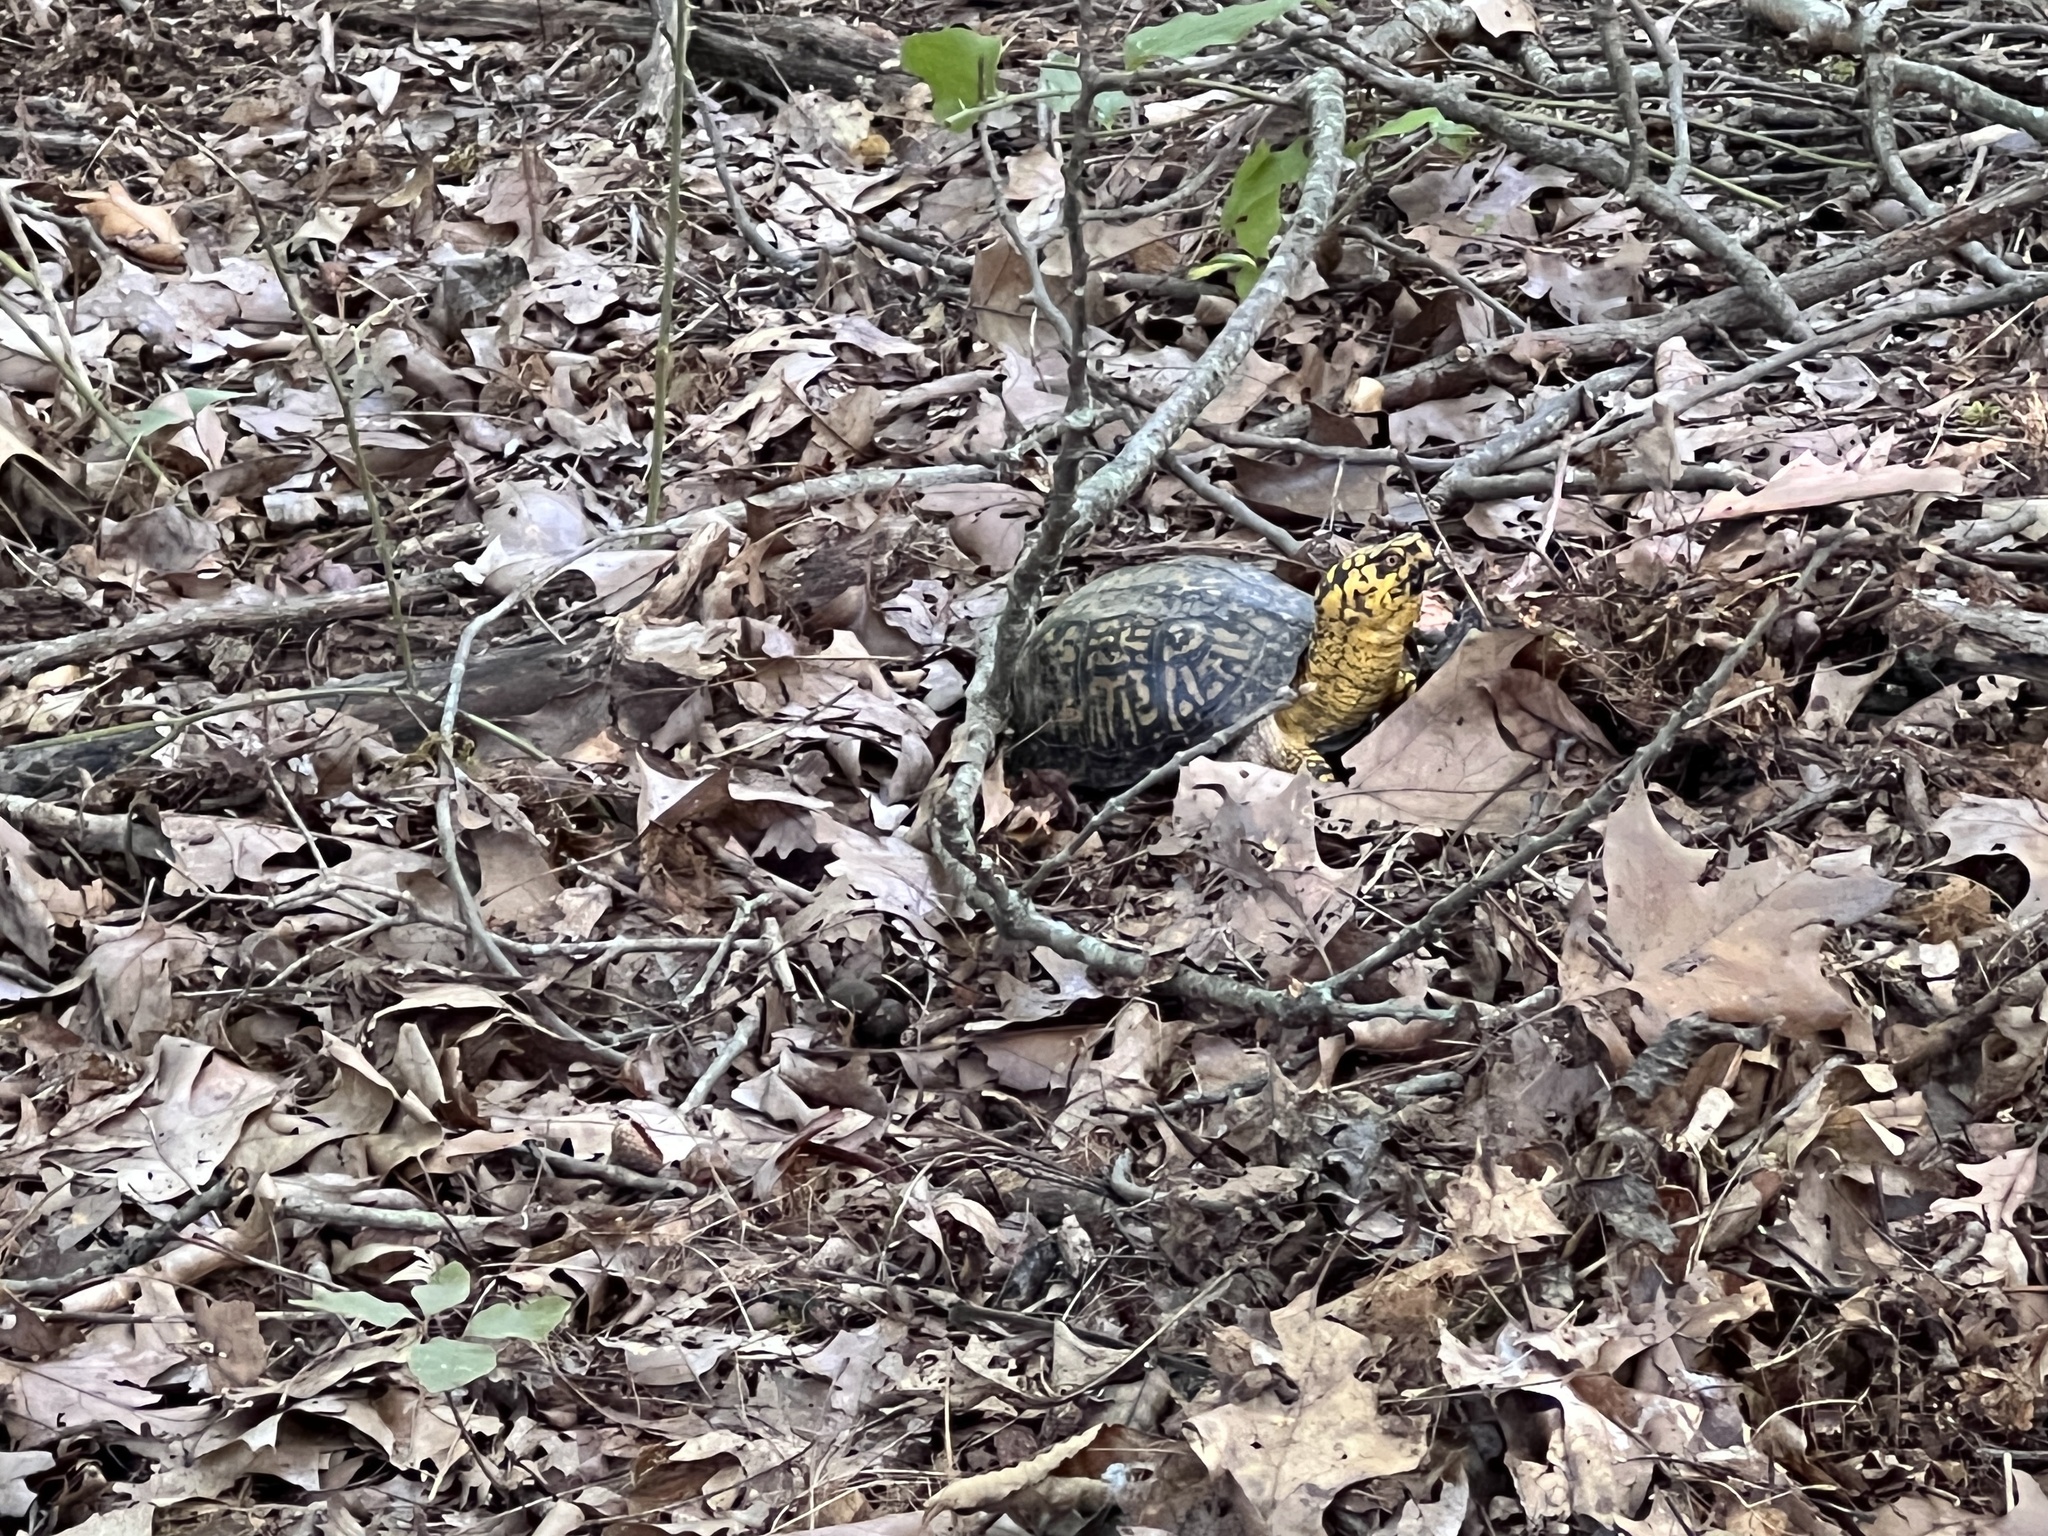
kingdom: Animalia
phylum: Chordata
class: Testudines
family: Emydidae
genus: Terrapene
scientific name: Terrapene carolina
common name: Common box turtle
